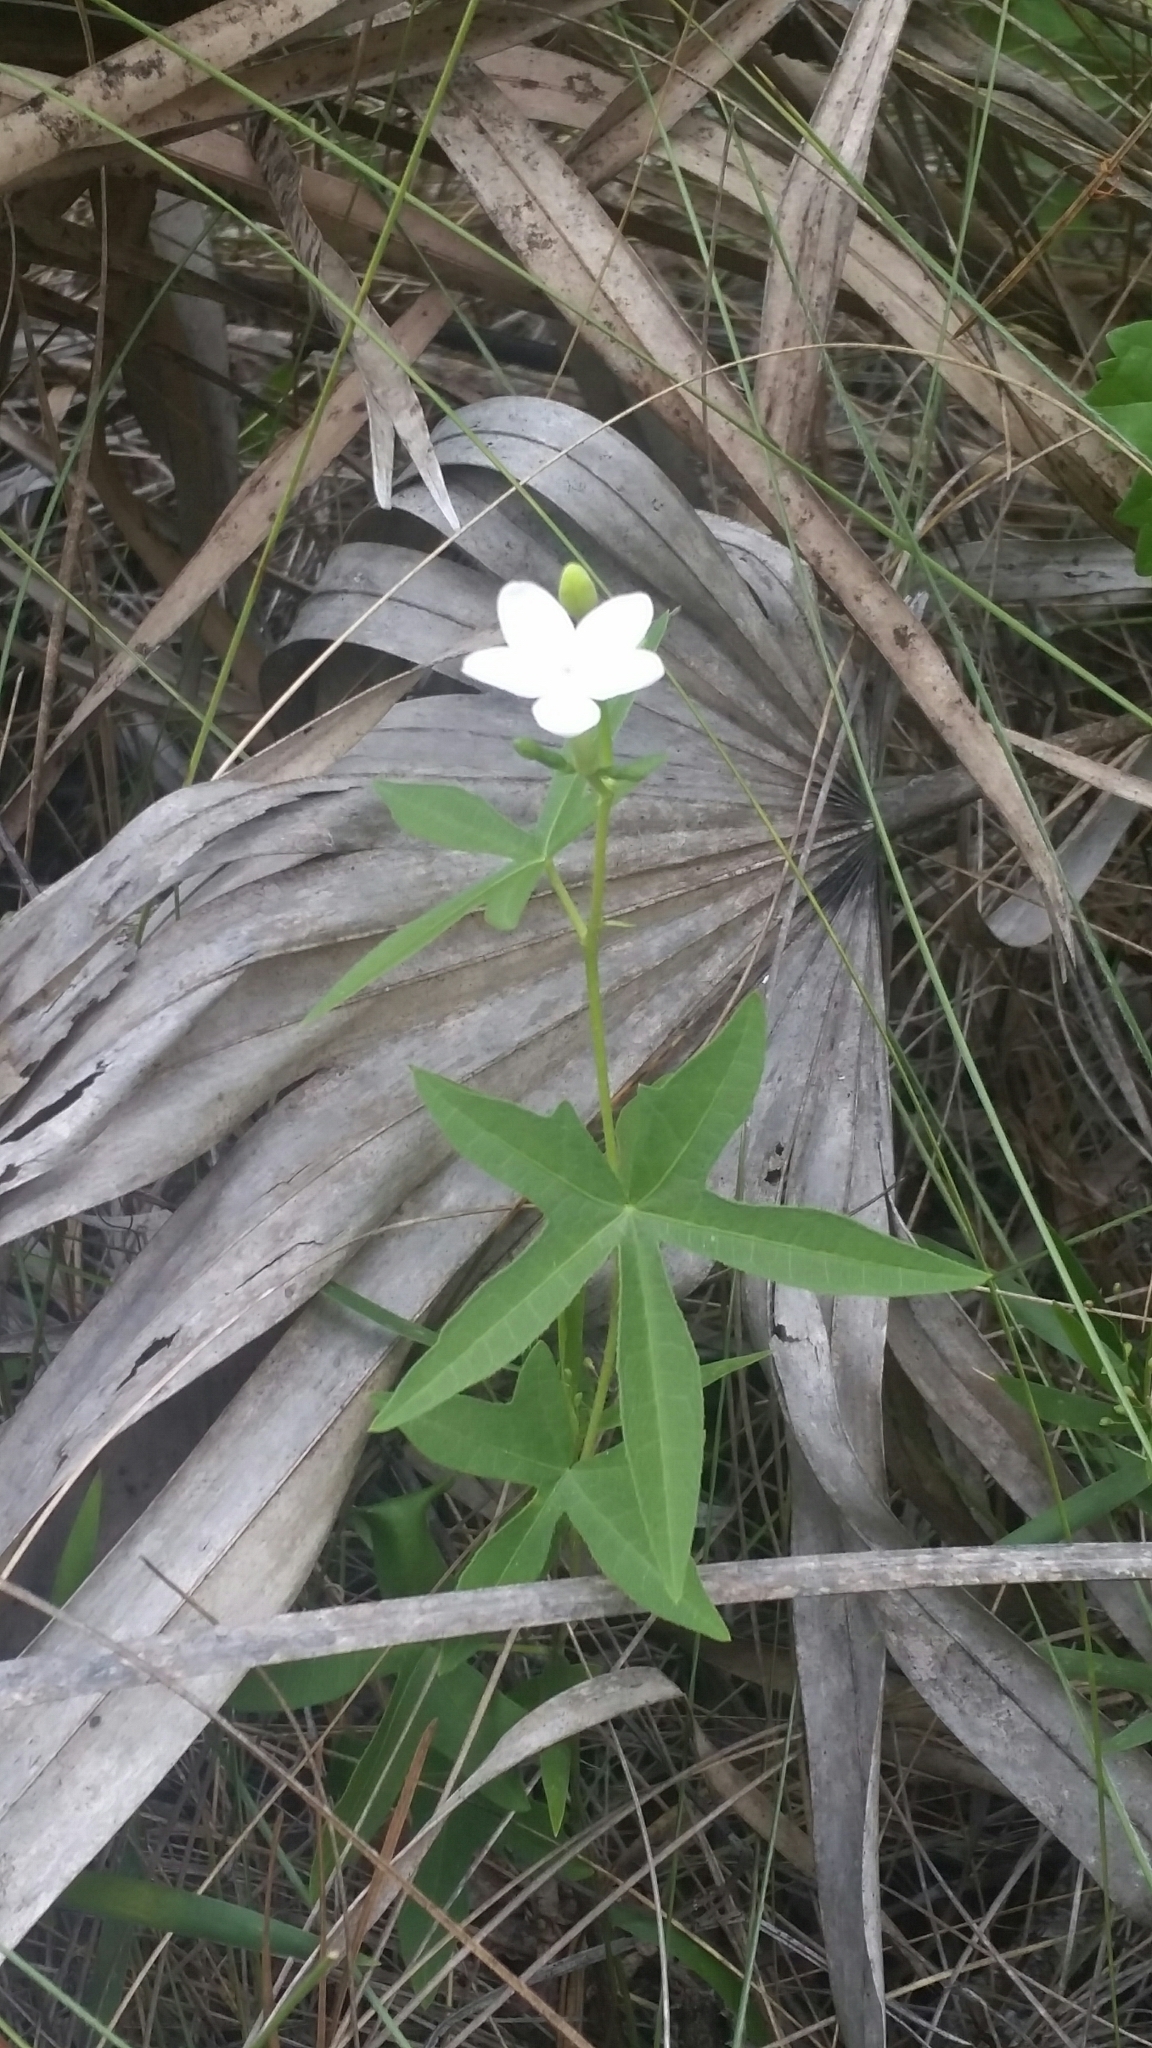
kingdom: Plantae
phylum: Tracheophyta
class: Magnoliopsida
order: Malpighiales
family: Euphorbiaceae
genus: Cnidoscolus
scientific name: Cnidoscolus stimulosus
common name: Bull-nettle
